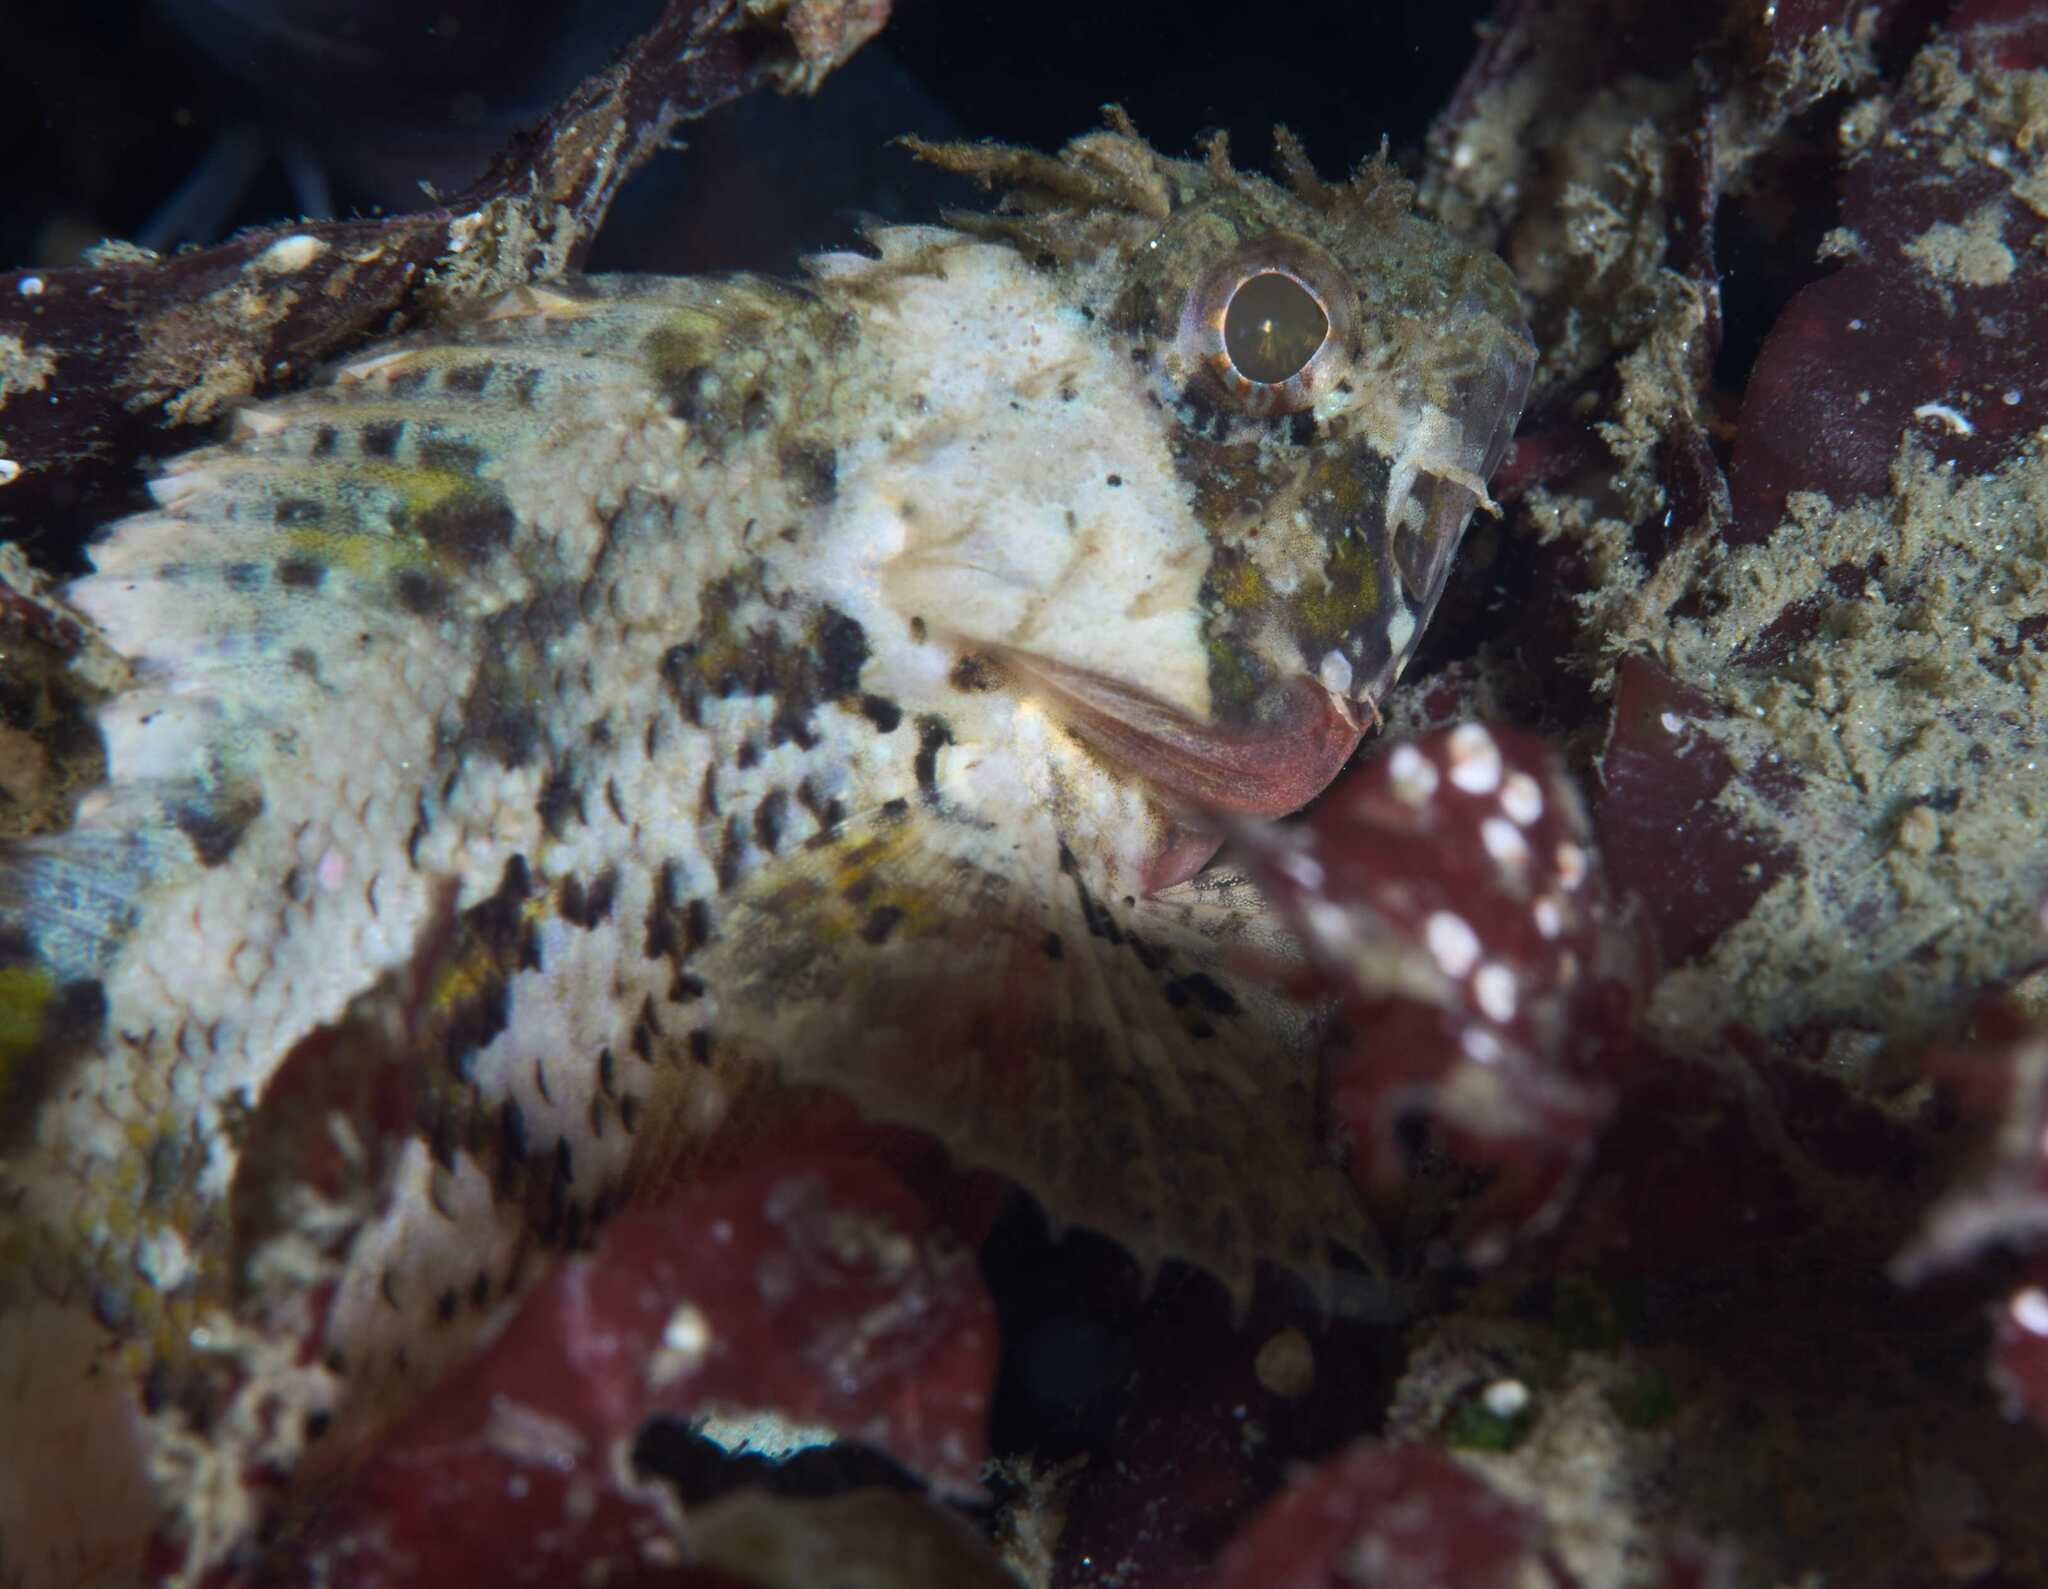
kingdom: Animalia
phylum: Chordata
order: Scorpaeniformes
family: Scorpaenidae
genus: Scorpaena
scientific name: Scorpaena papillosa
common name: Chained scorpionfish
